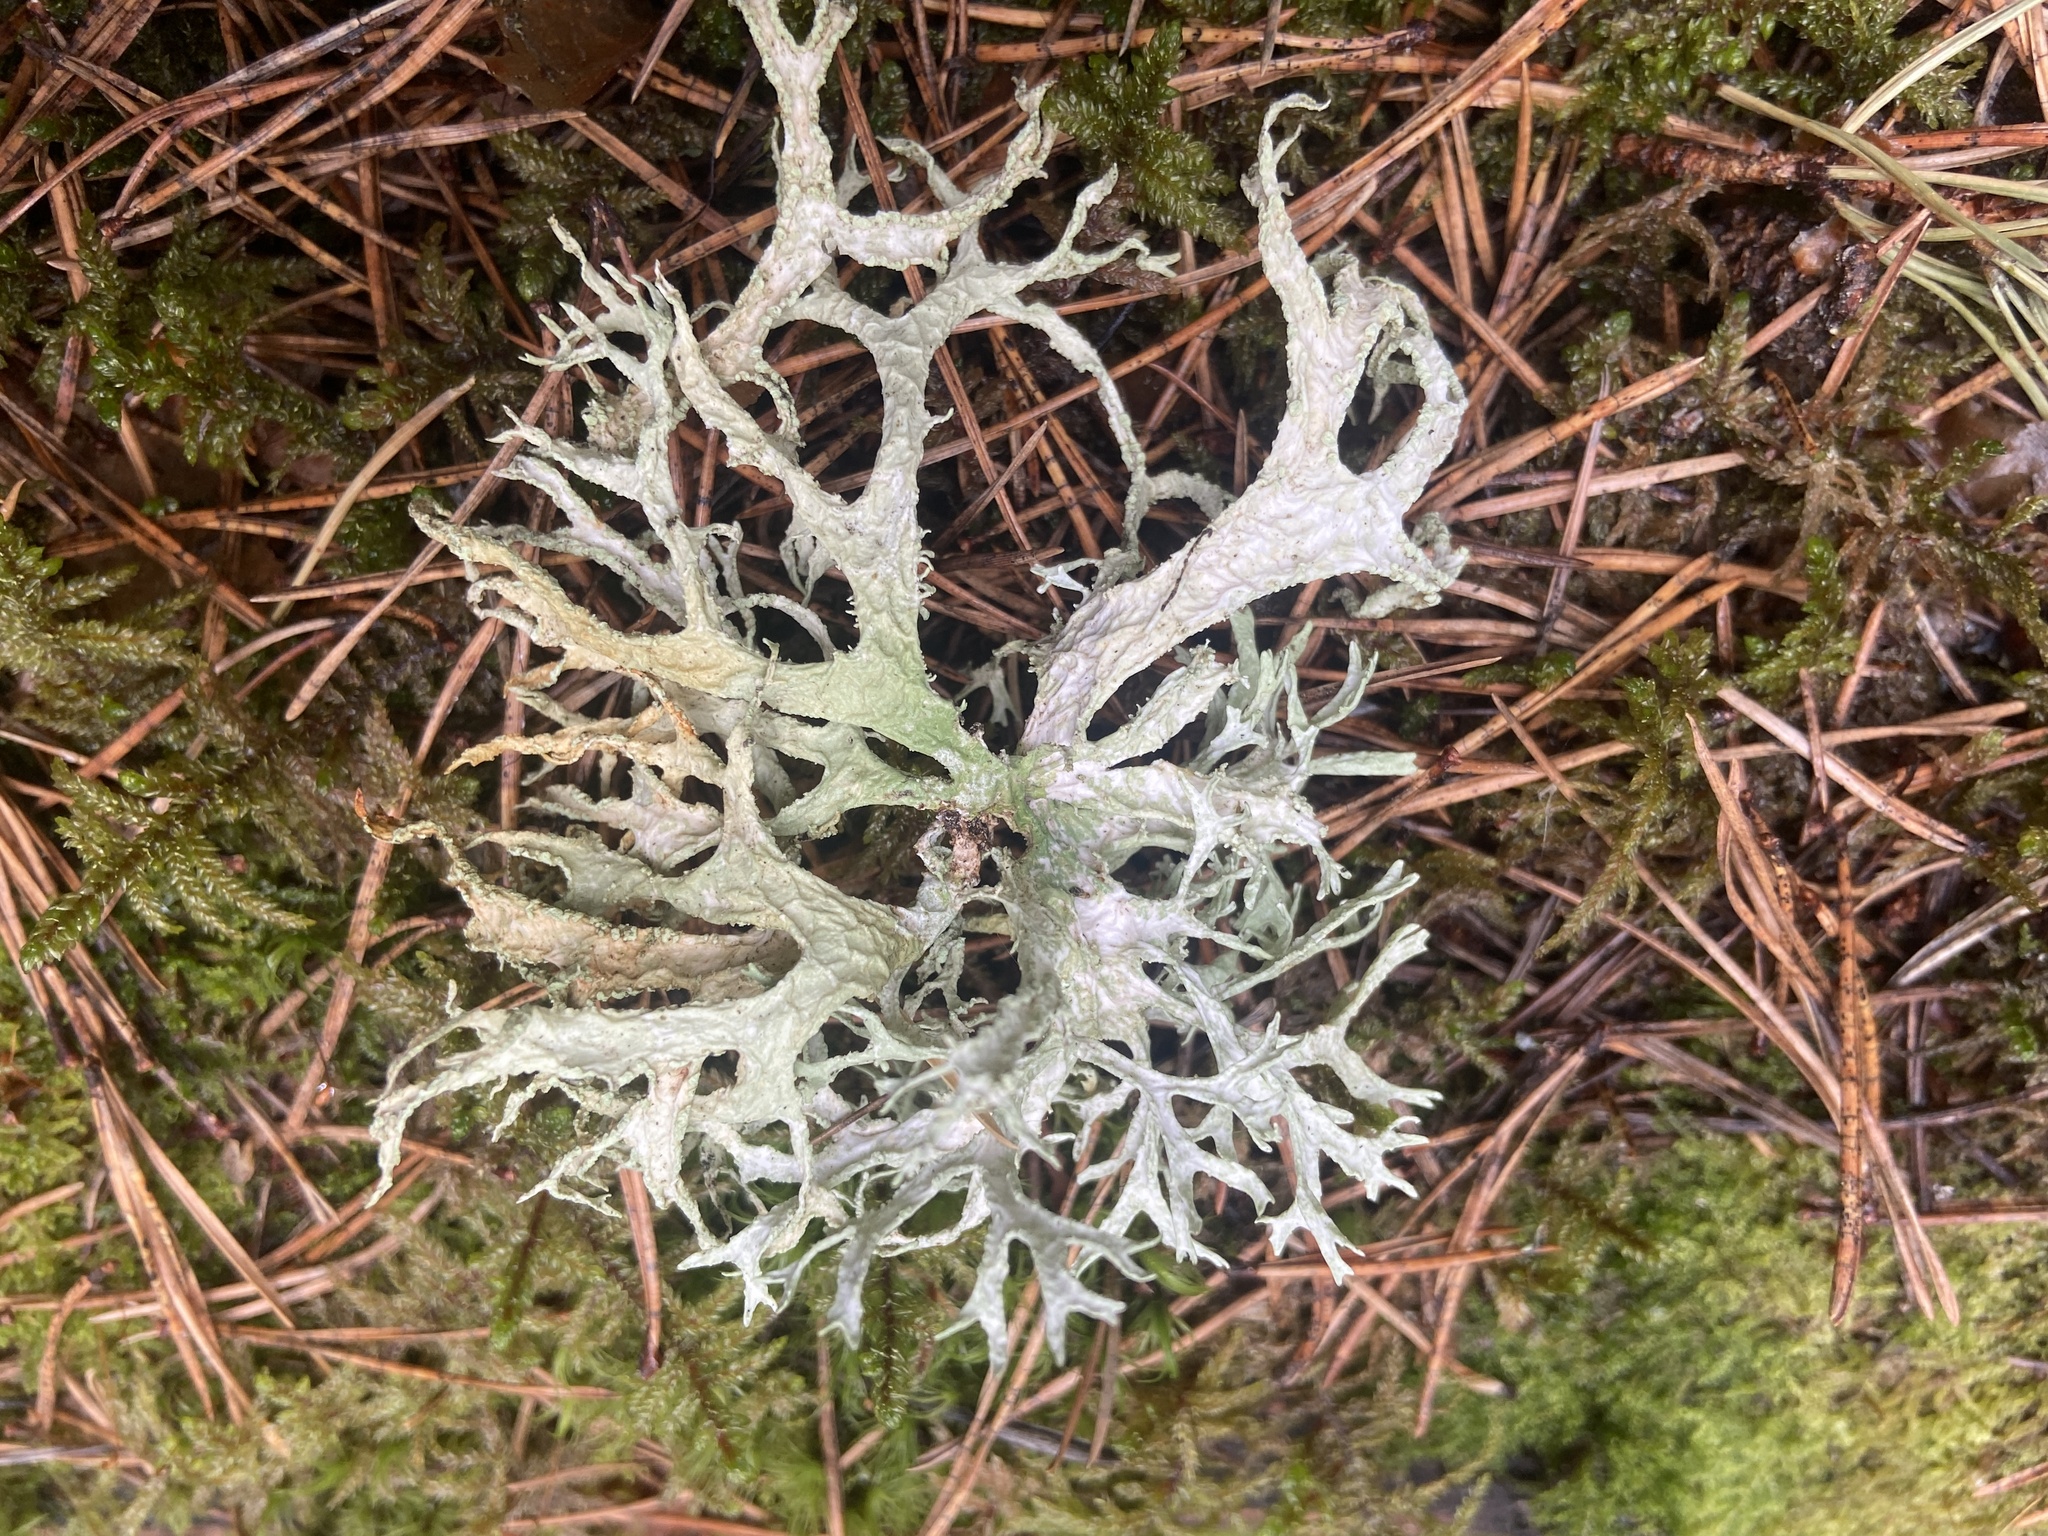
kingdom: Fungi
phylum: Ascomycota
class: Lecanoromycetes
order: Lecanorales
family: Parmeliaceae
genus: Evernia
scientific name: Evernia prunastri
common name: Oak moss
